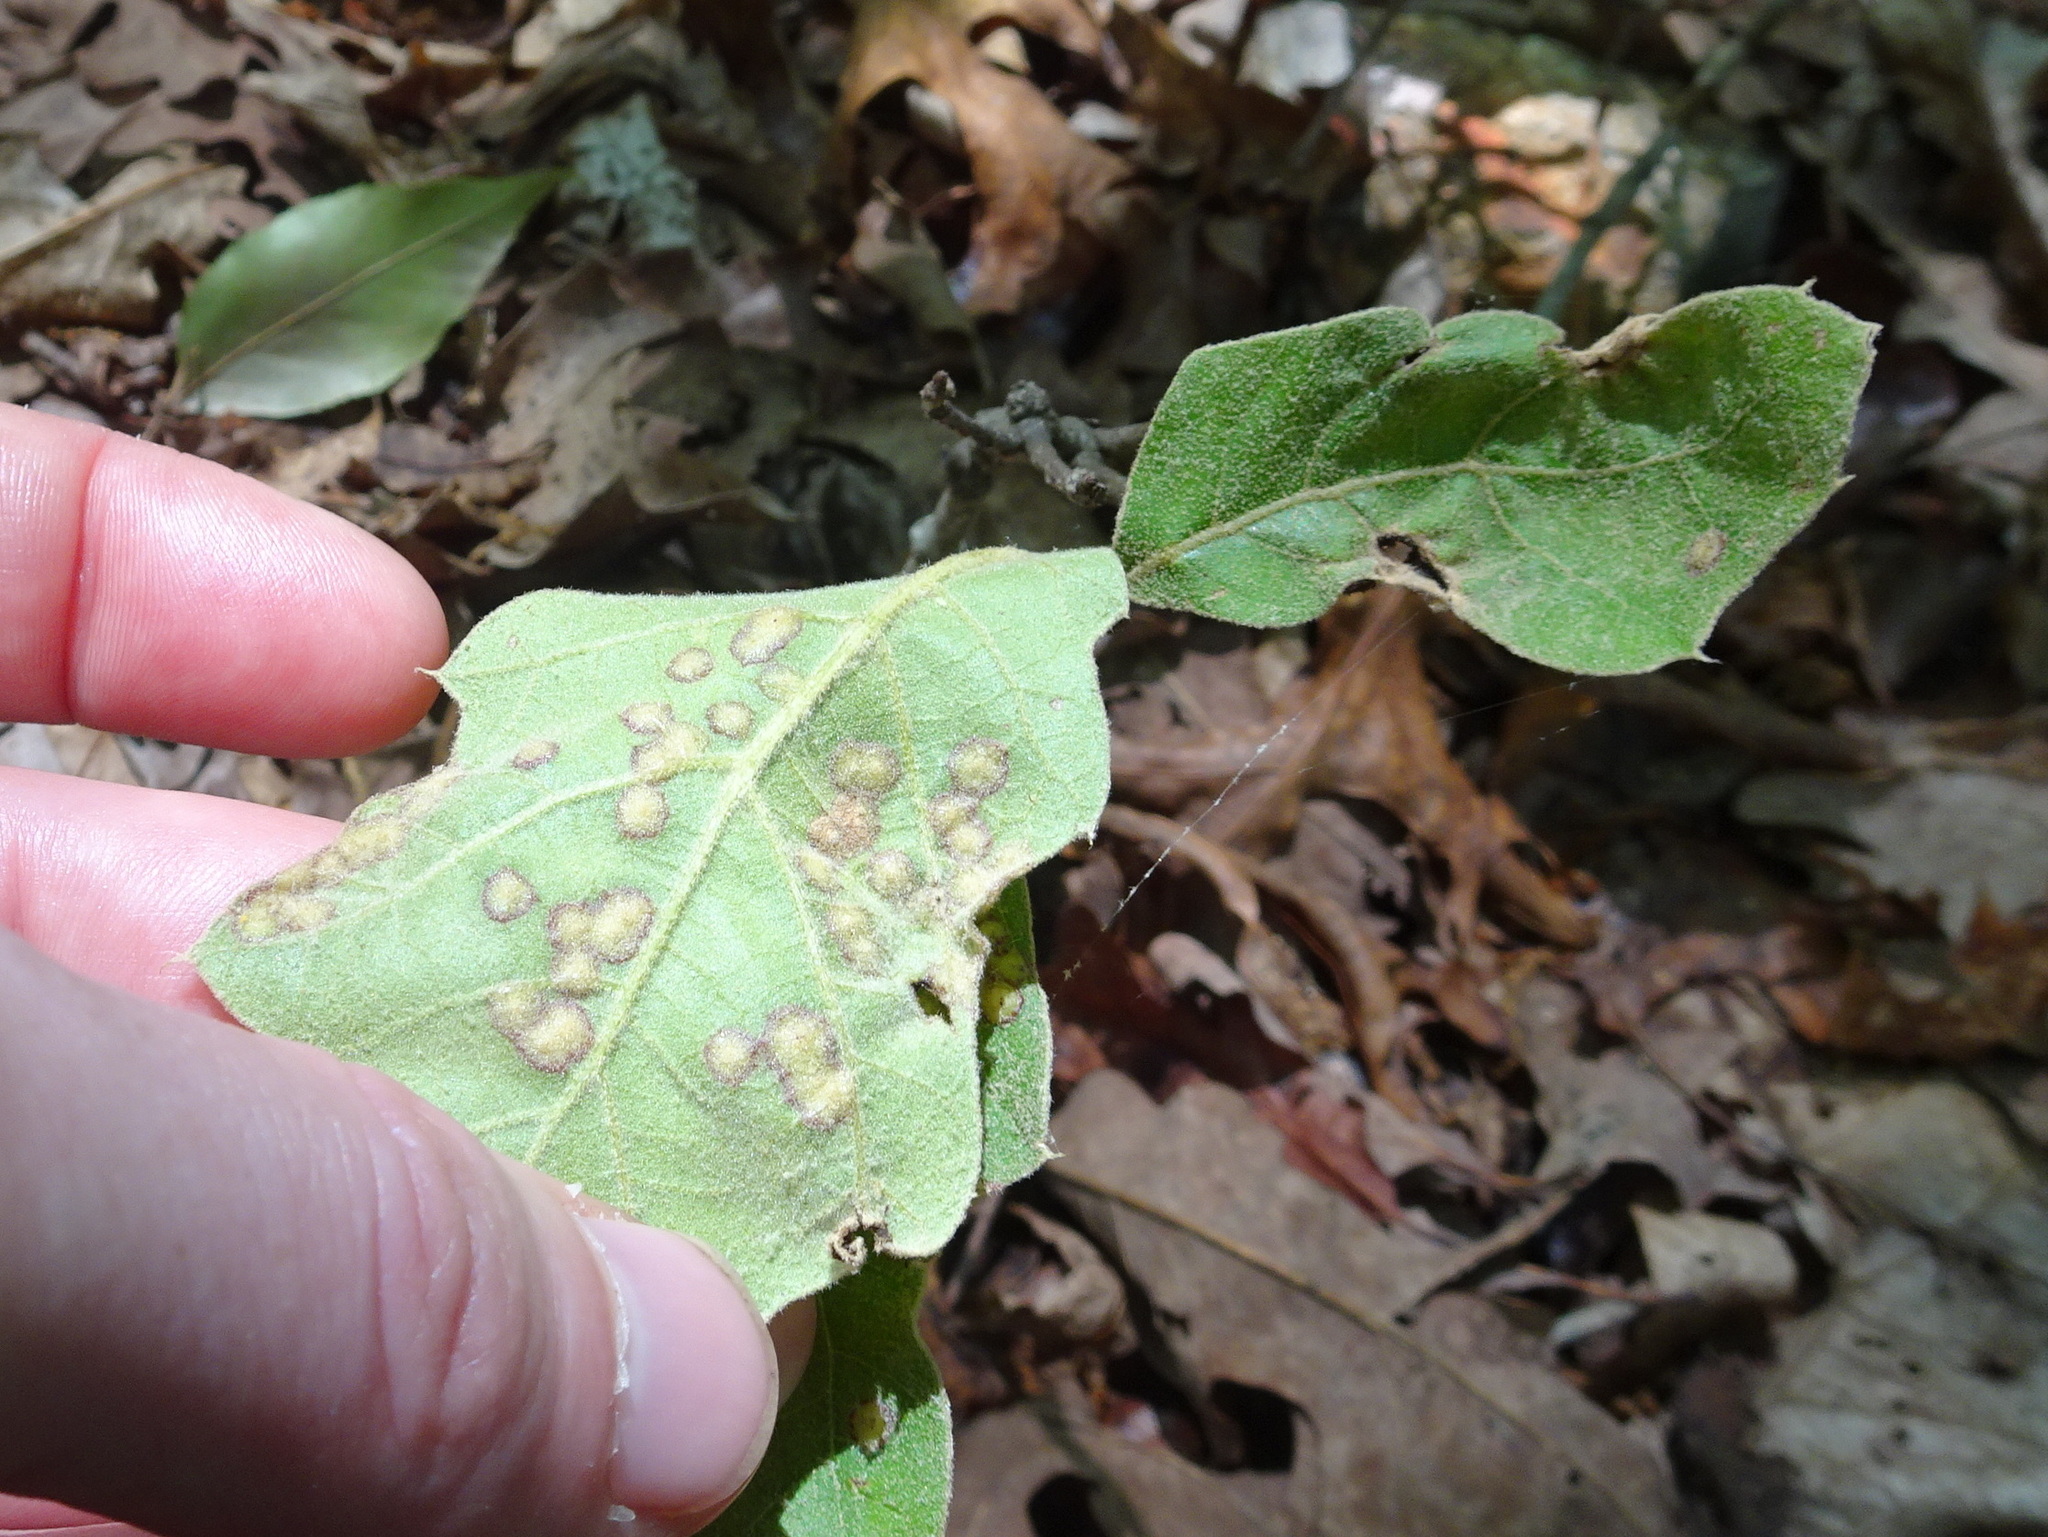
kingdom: Animalia
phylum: Arthropoda
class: Insecta
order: Diptera
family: Cecidomyiidae
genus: Polystepha
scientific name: Polystepha pilulae
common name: Oak leaf gall midge
